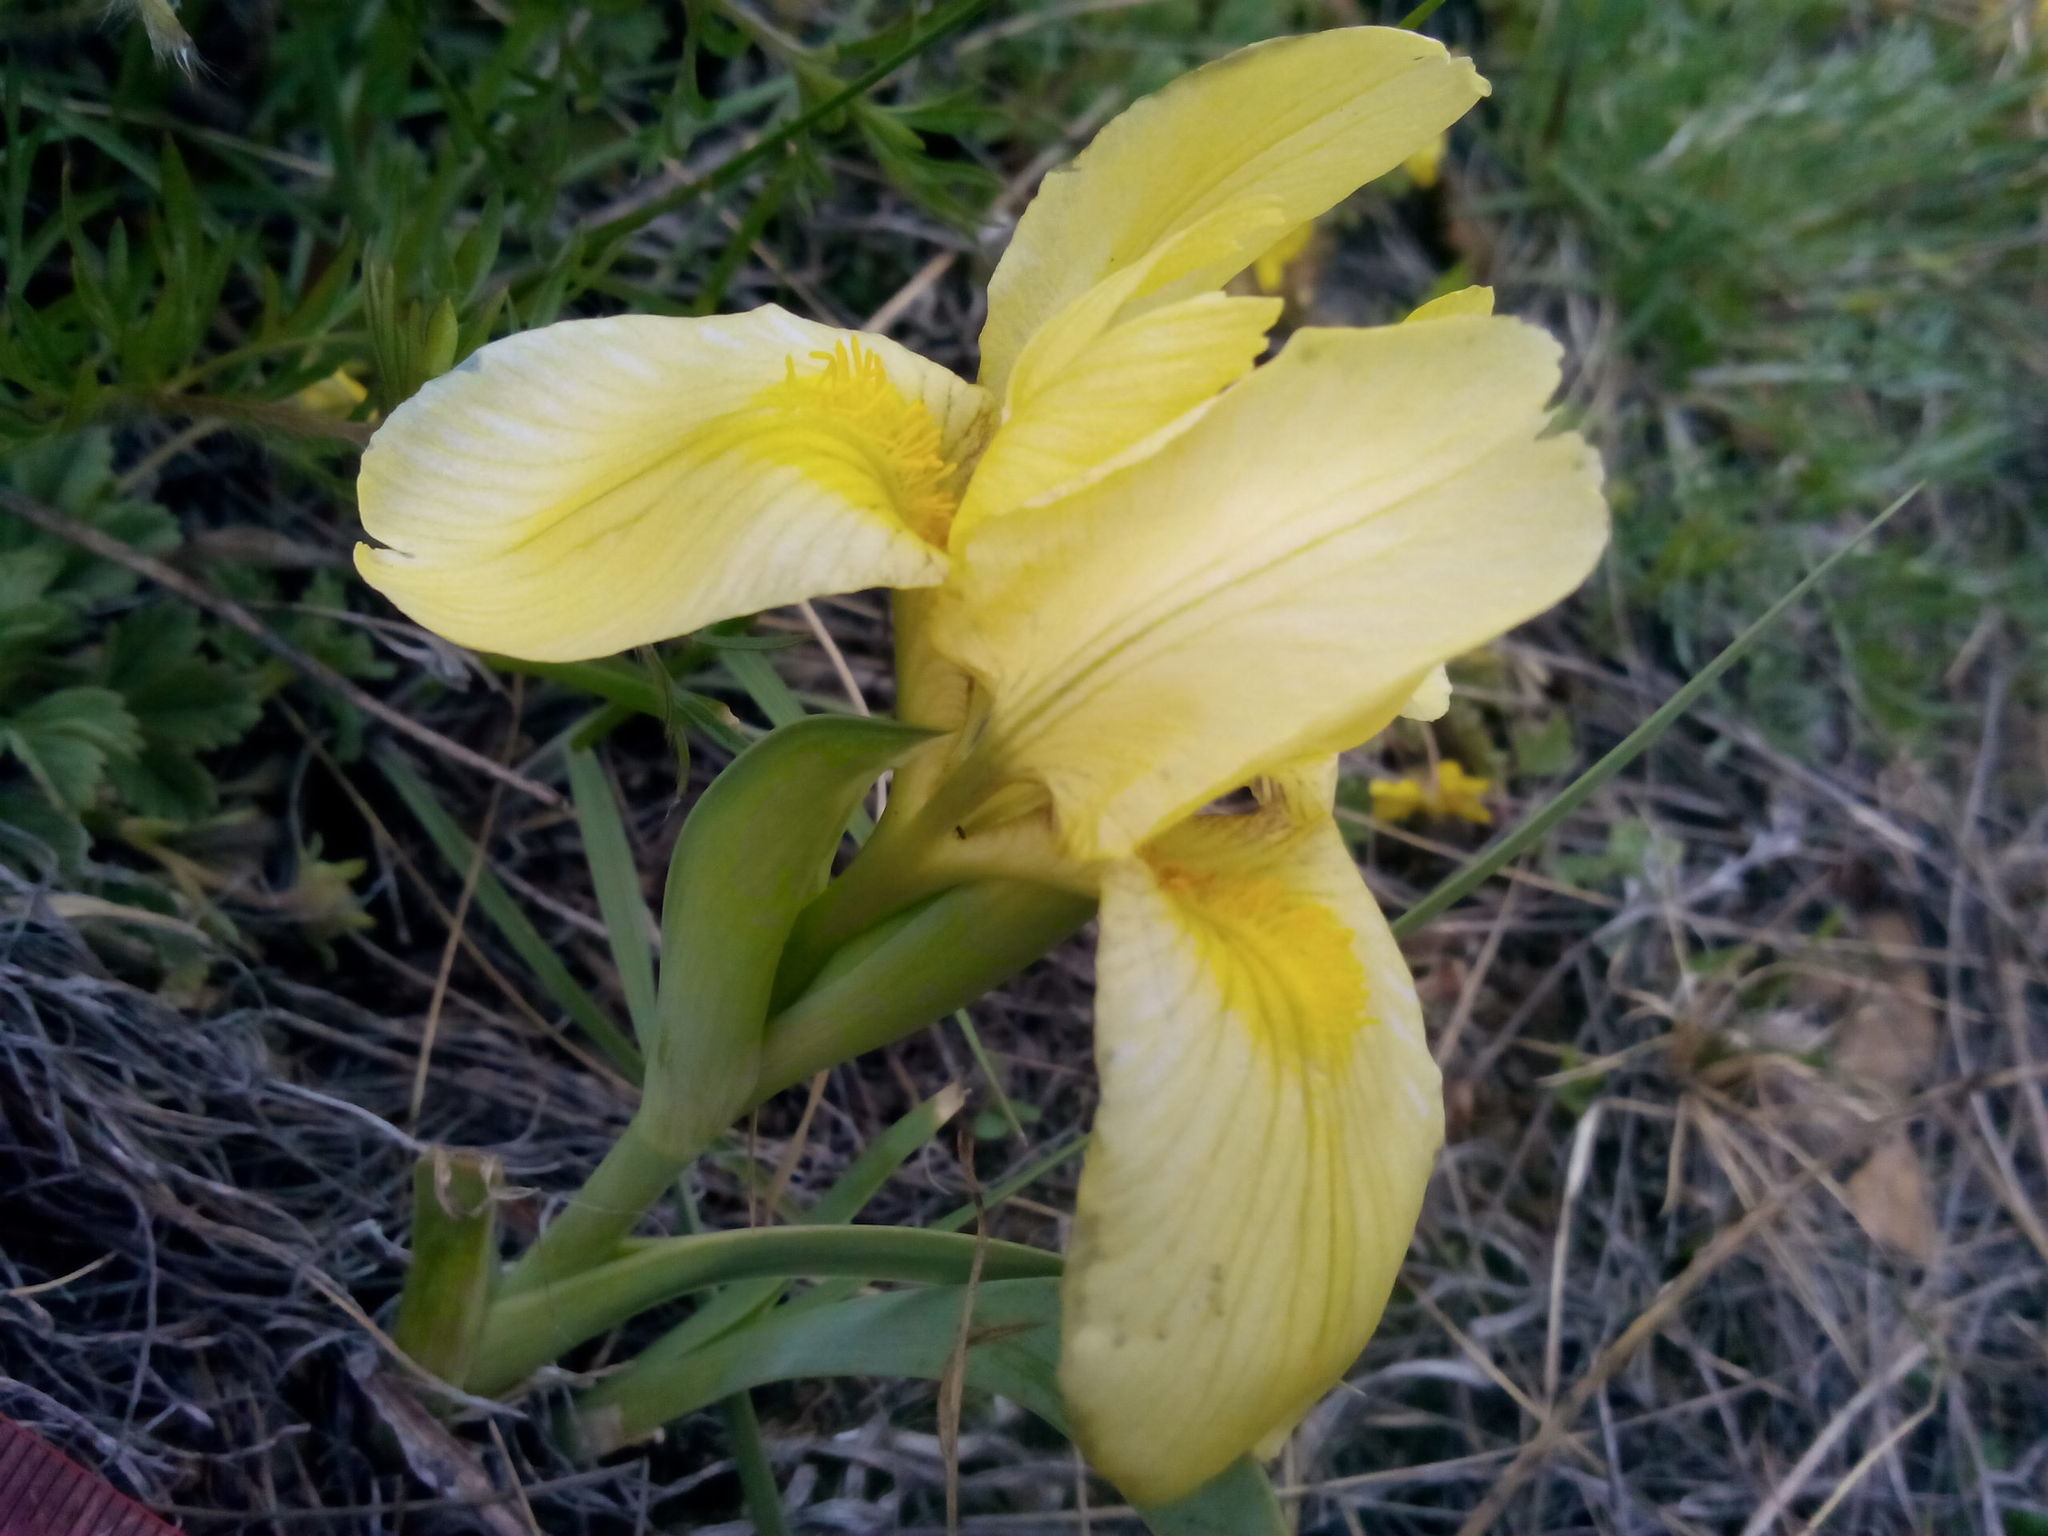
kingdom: Plantae
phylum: Tracheophyta
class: Liliopsida
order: Asparagales
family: Iridaceae
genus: Iris
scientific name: Iris humilis
